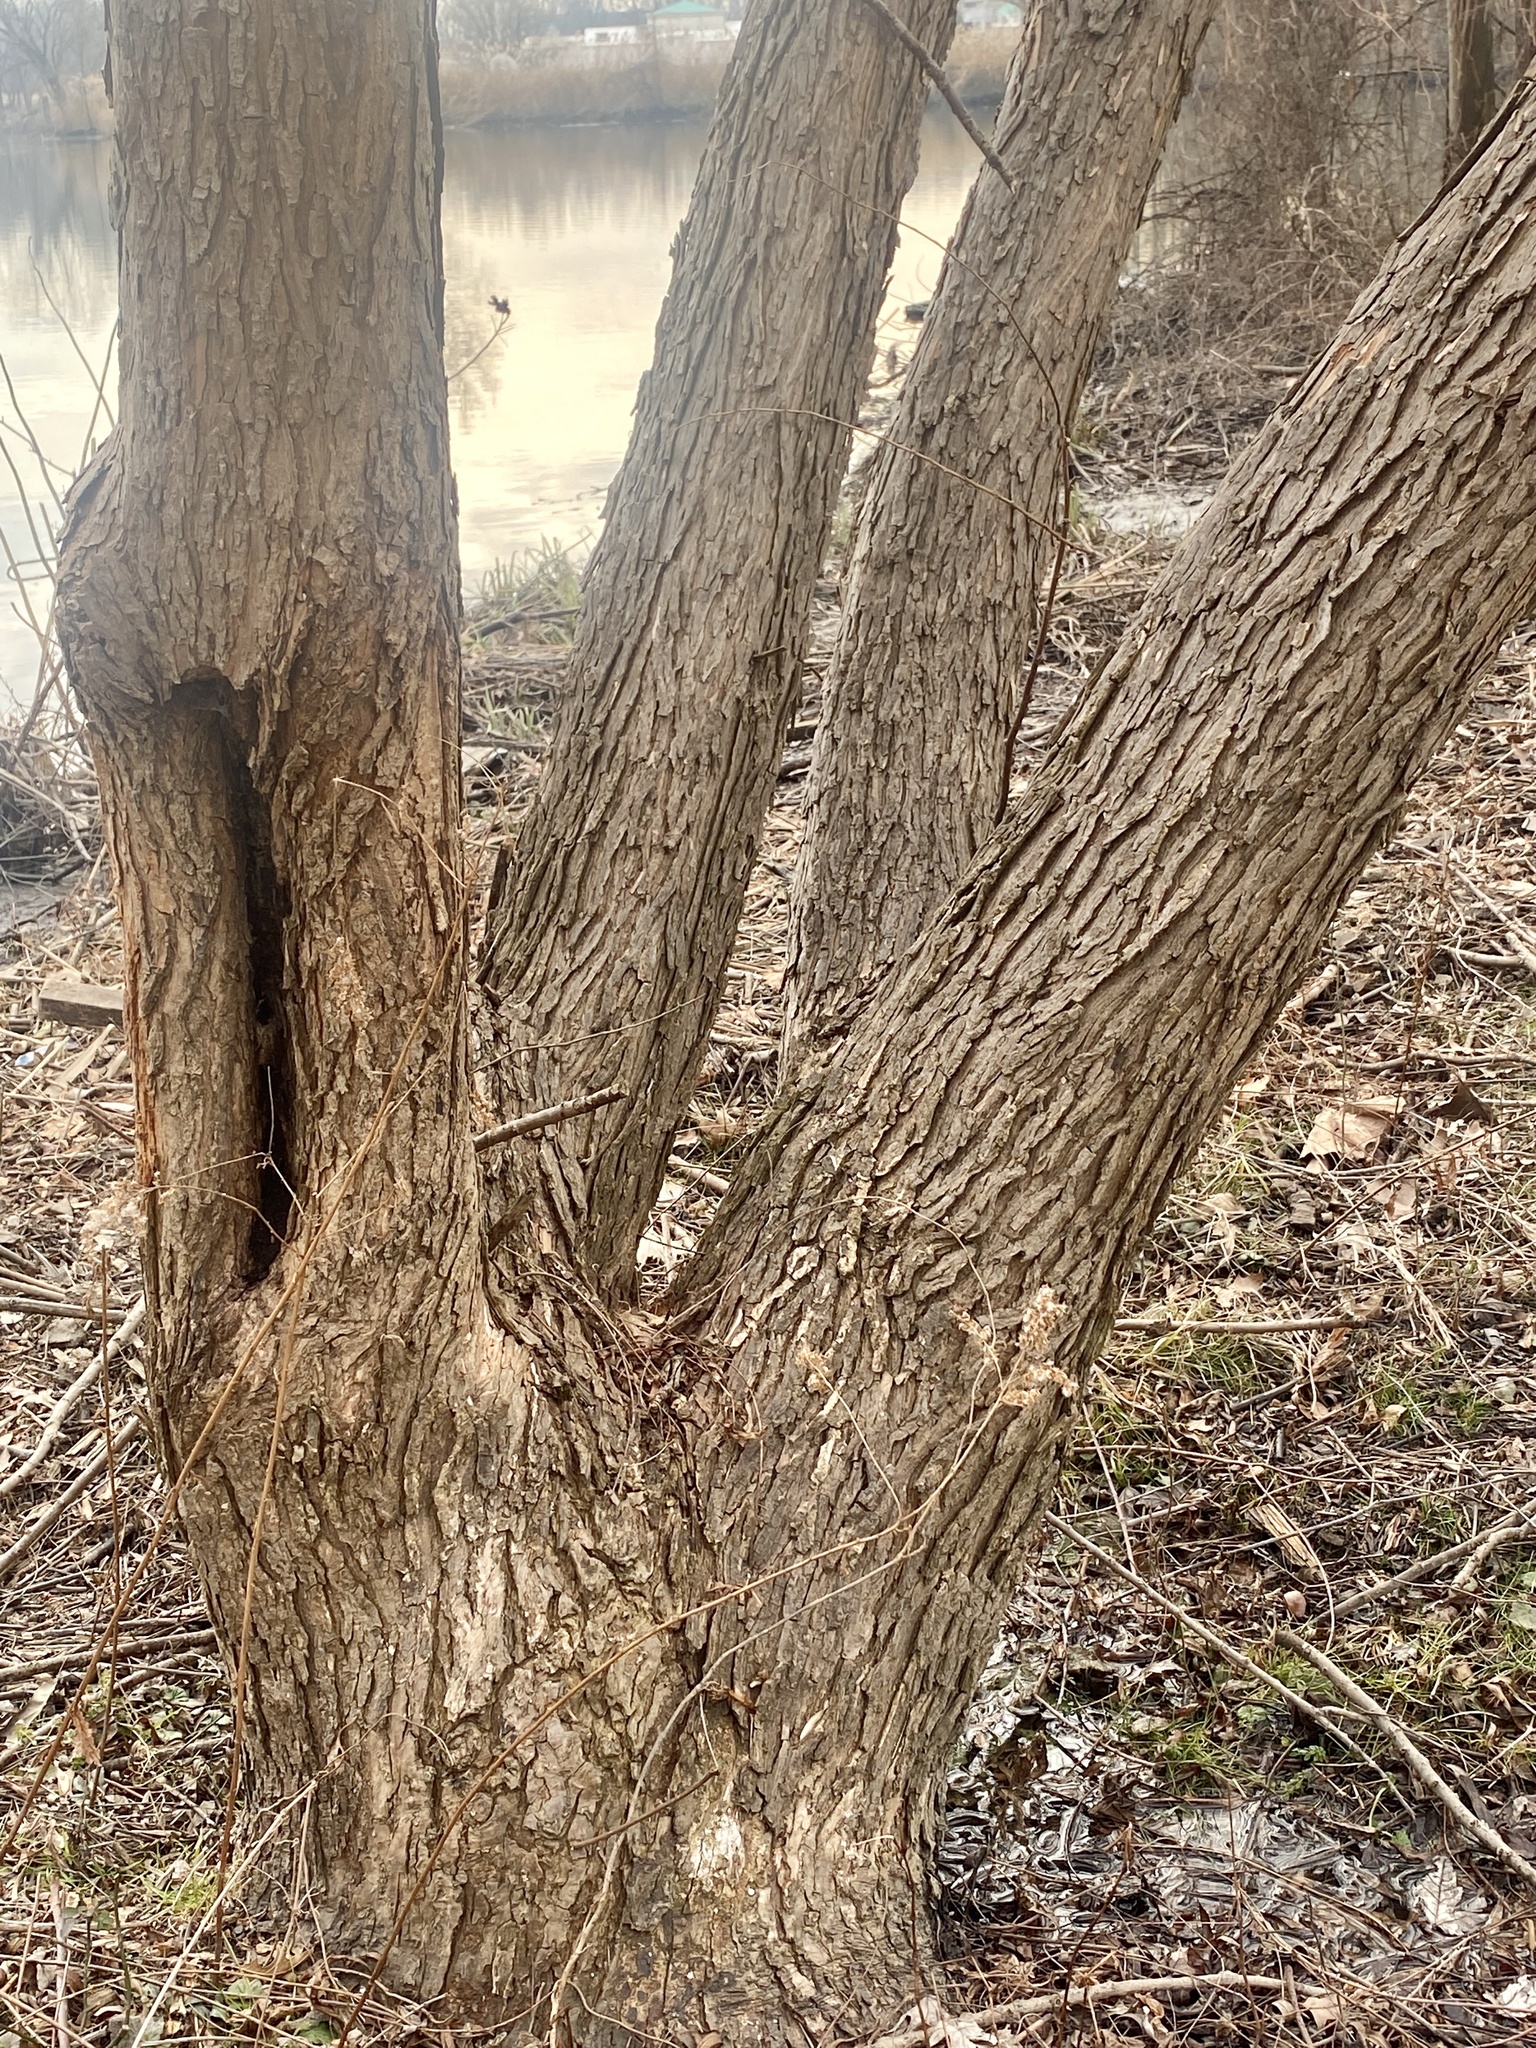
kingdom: Plantae
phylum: Tracheophyta
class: Magnoliopsida
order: Sapindales
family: Sapindaceae
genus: Acer
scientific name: Acer saccharinum
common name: Silver maple
